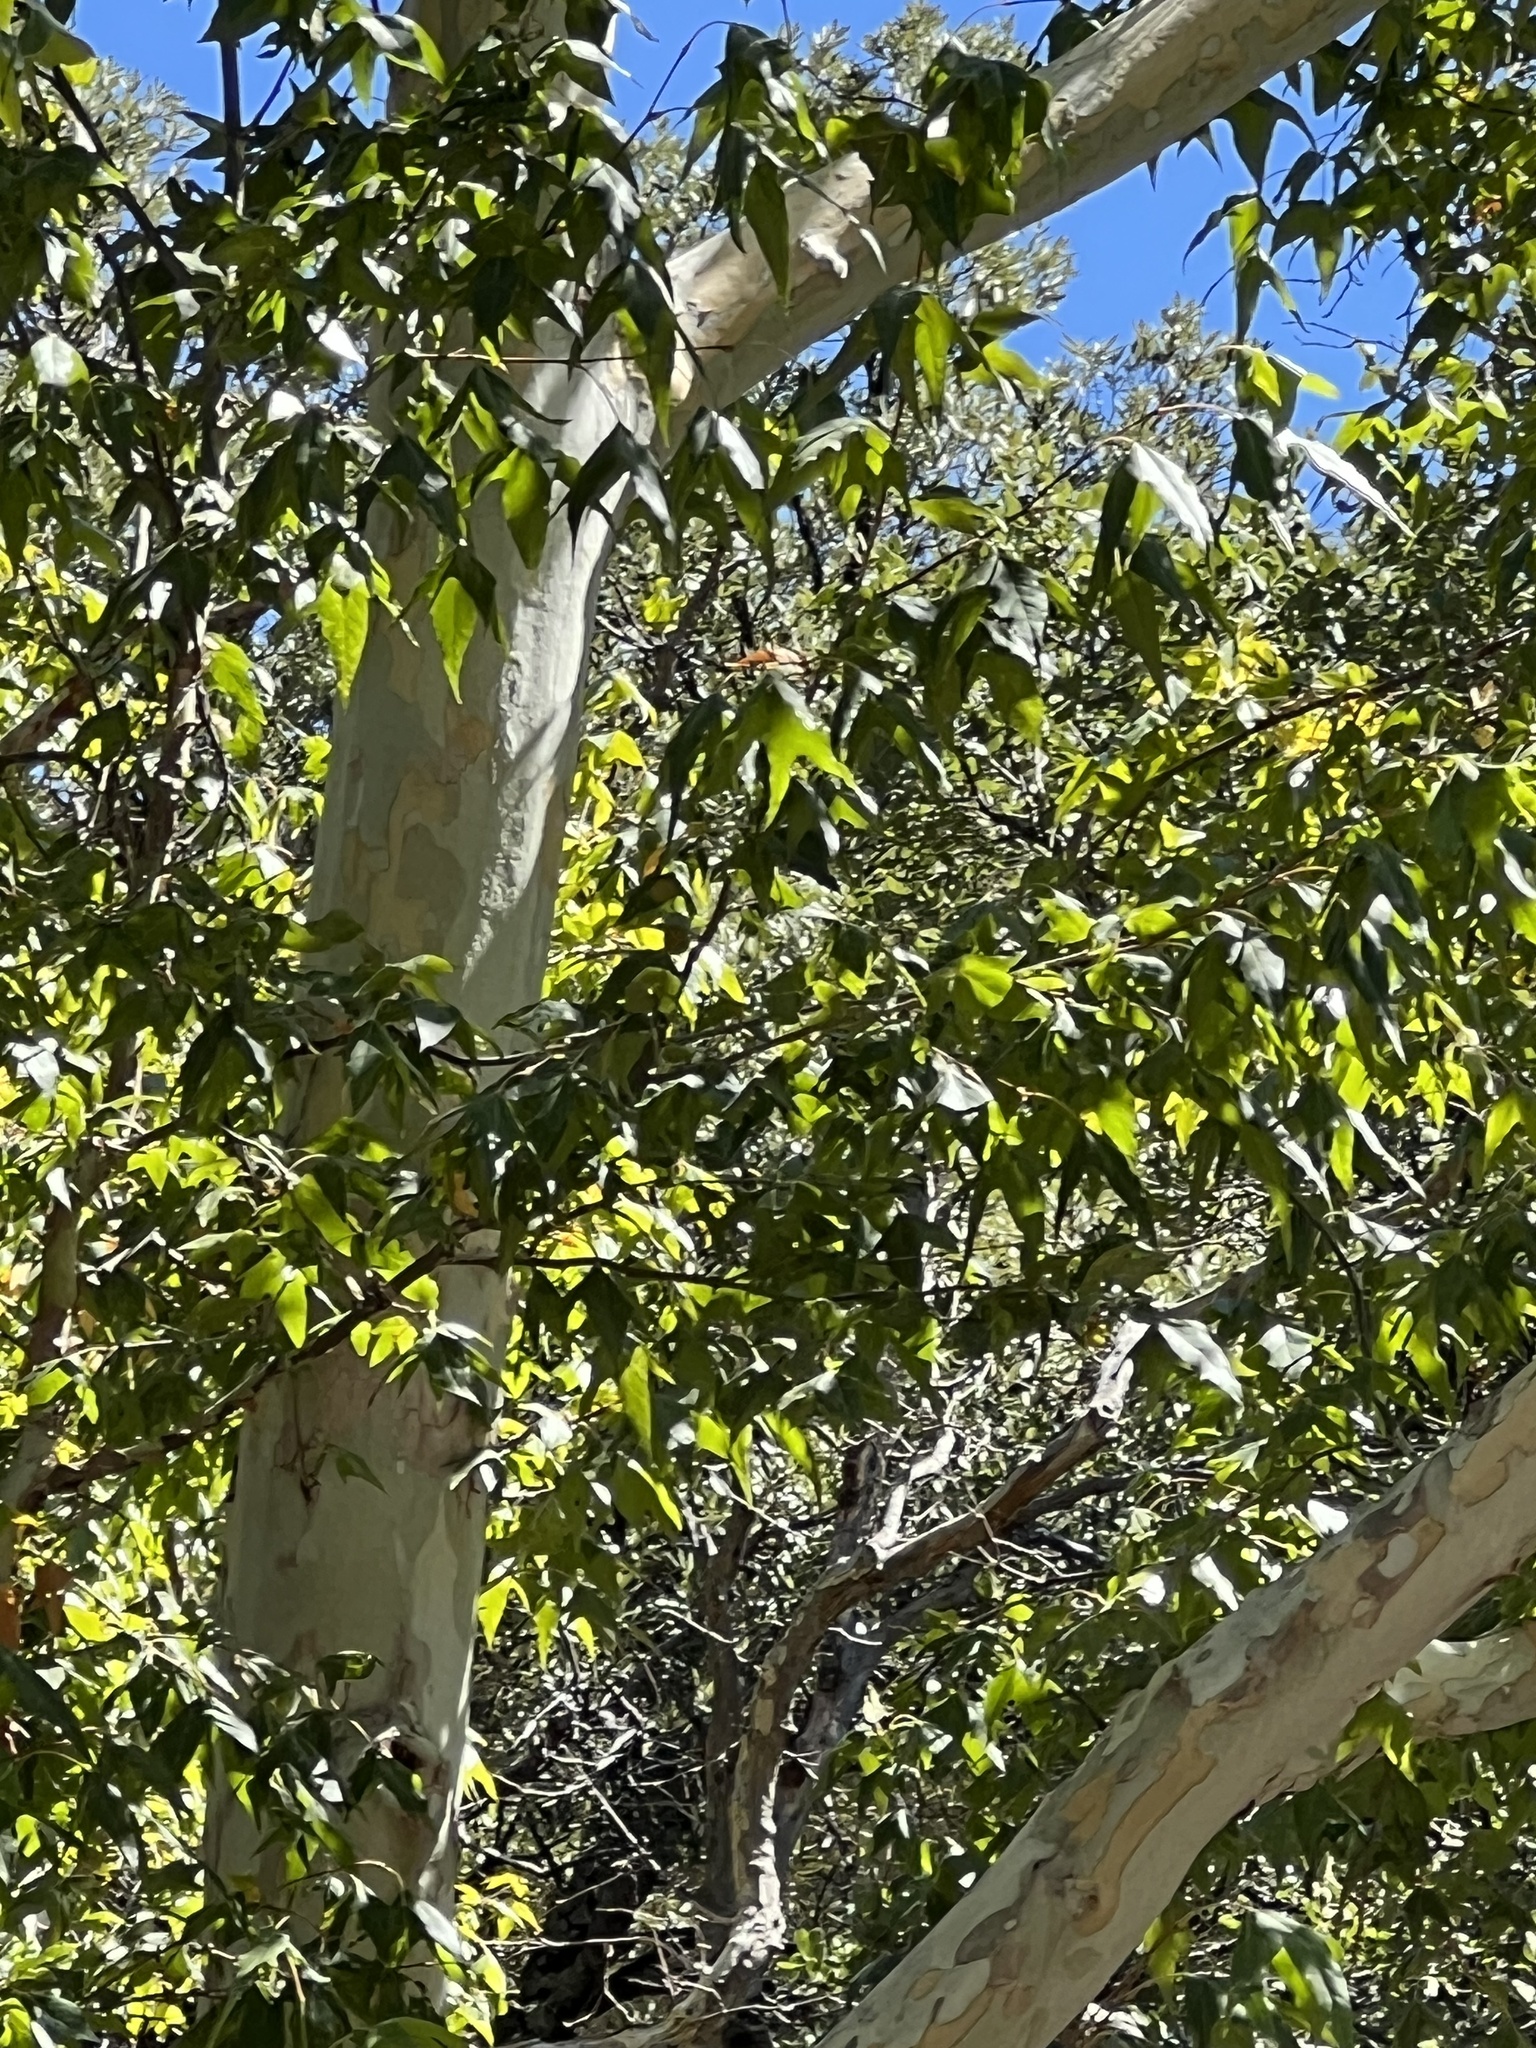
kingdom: Plantae
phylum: Tracheophyta
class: Magnoliopsida
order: Proteales
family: Platanaceae
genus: Platanus
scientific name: Platanus wrightii
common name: Arizona sycamore
